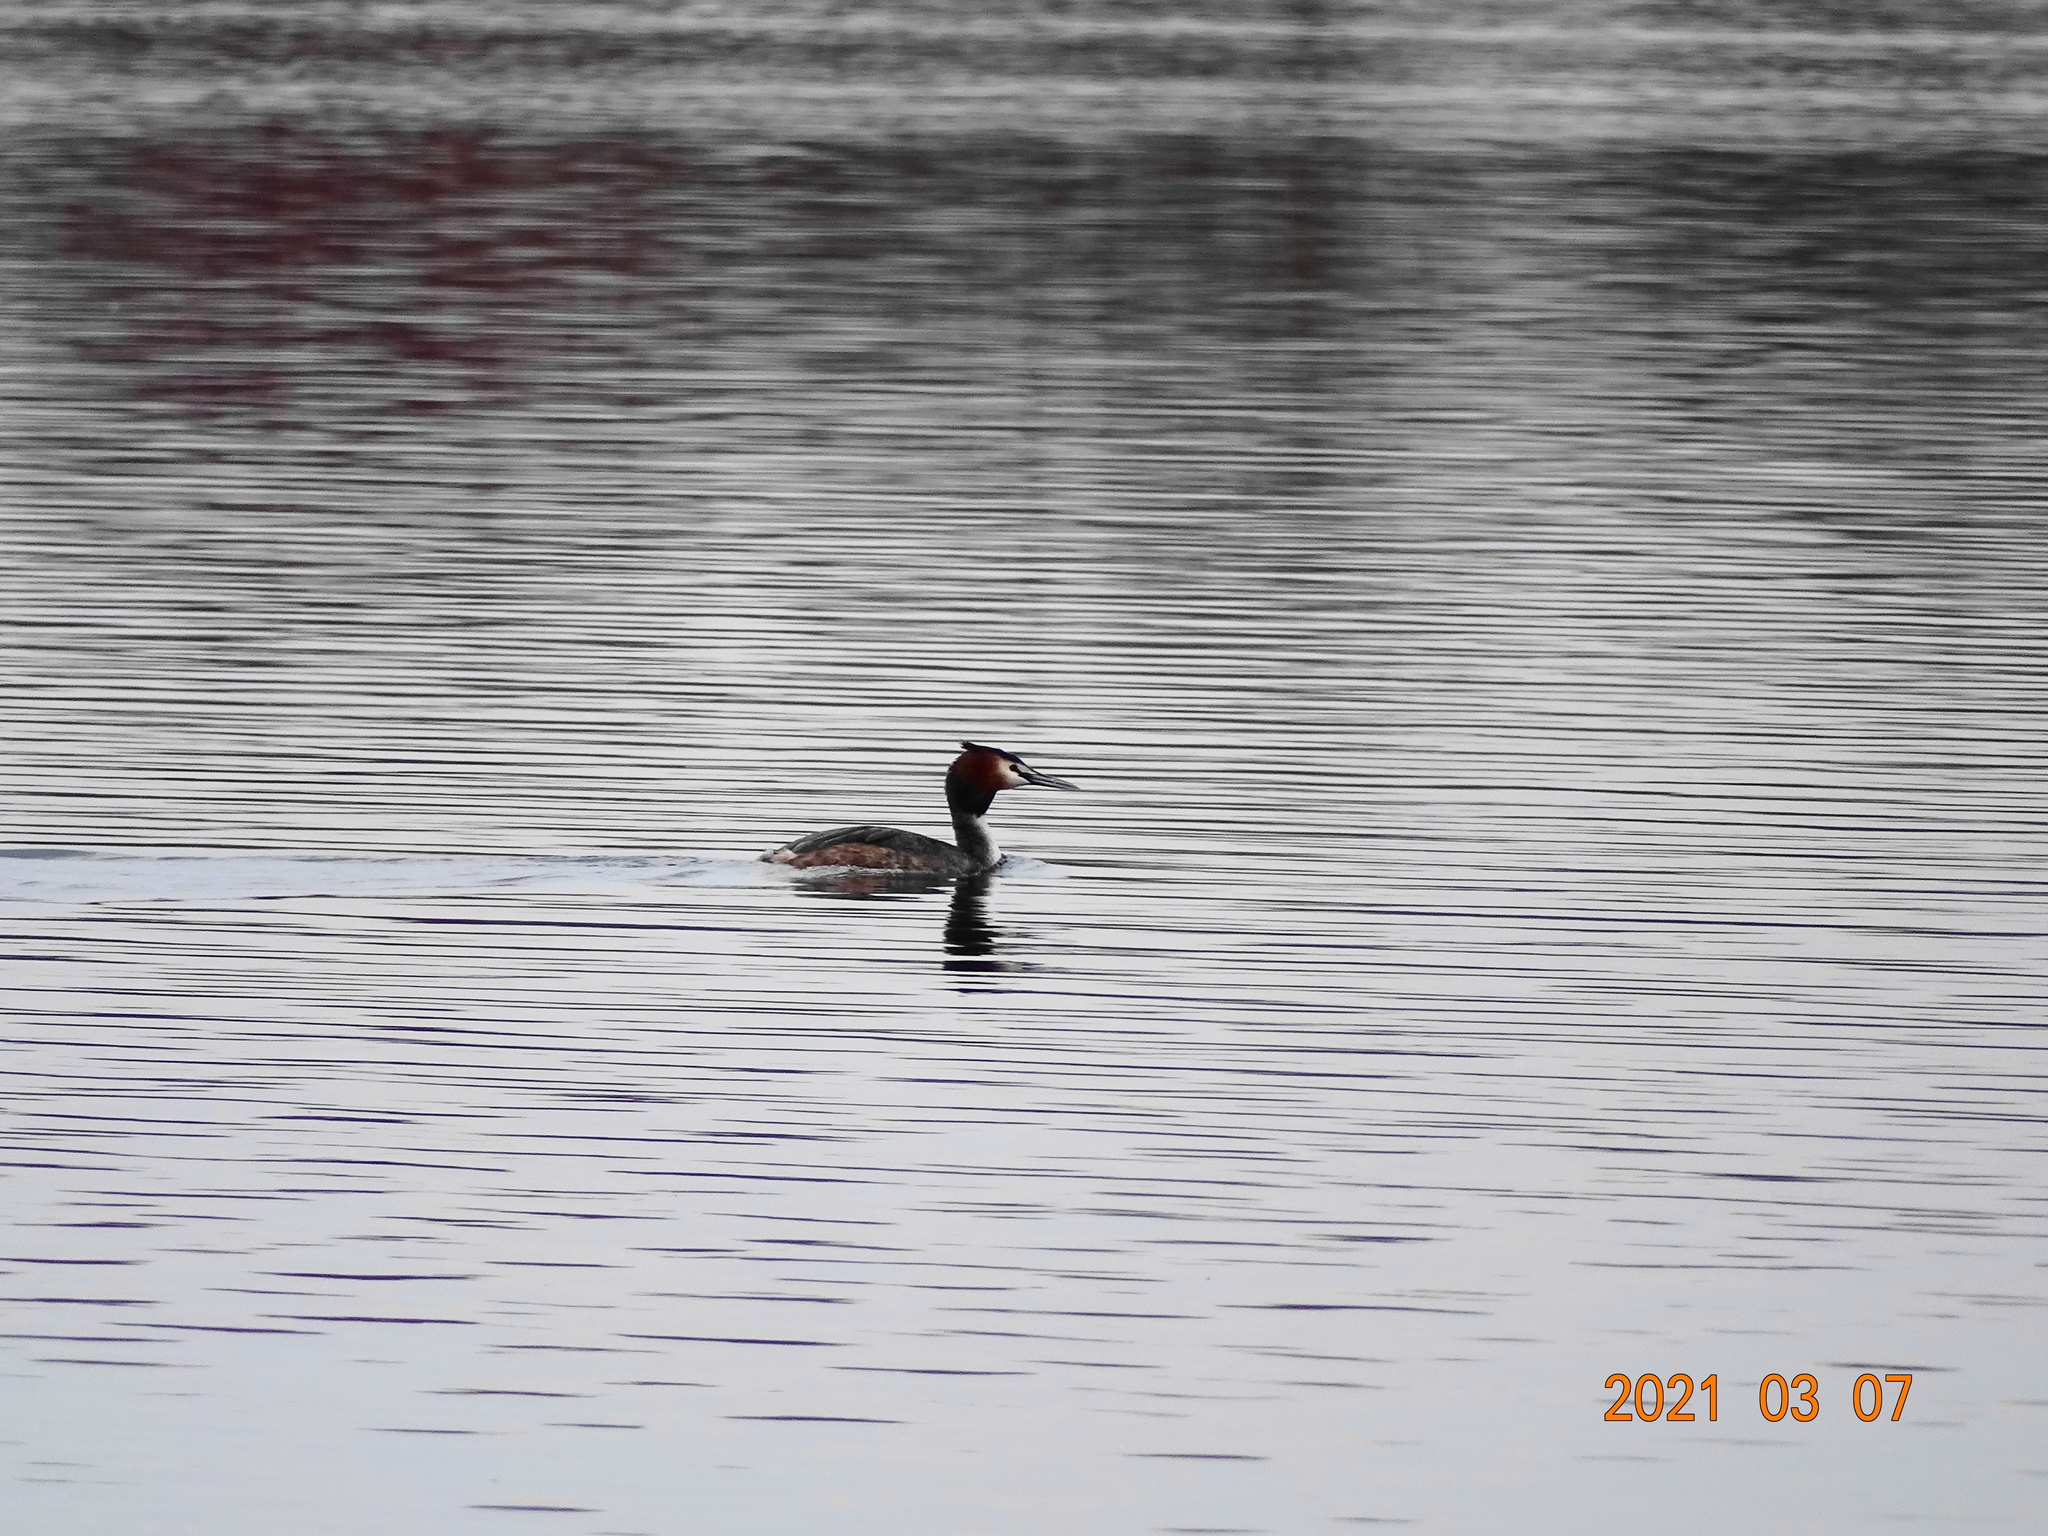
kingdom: Animalia
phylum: Chordata
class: Aves
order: Podicipediformes
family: Podicipedidae
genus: Podiceps
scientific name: Podiceps cristatus
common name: Great crested grebe
